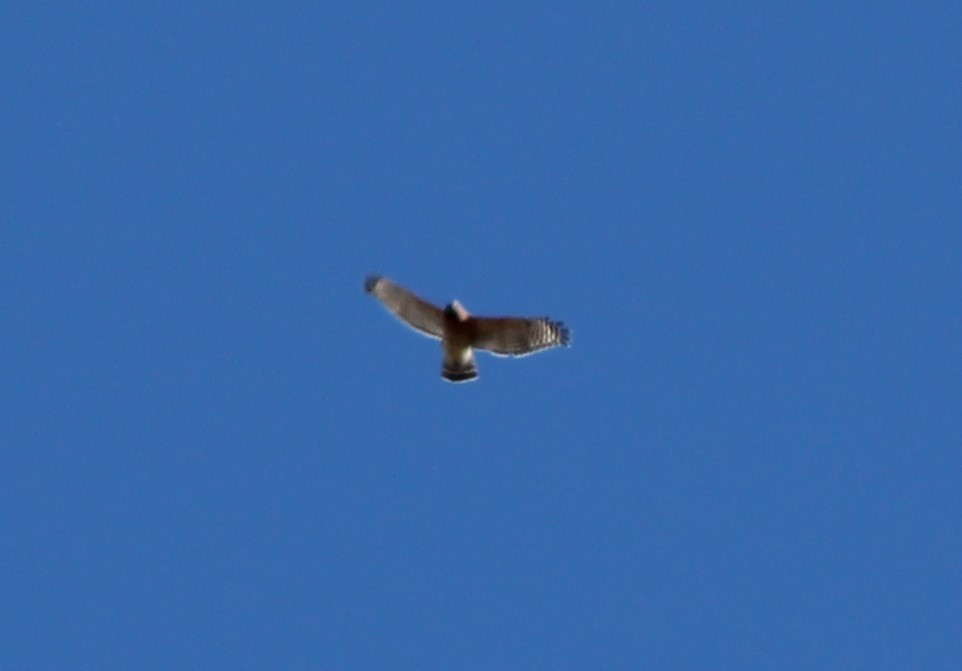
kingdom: Animalia
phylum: Chordata
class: Aves
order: Accipitriformes
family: Accipitridae
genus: Buteo
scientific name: Buteo lineatus
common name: Red-shouldered hawk
